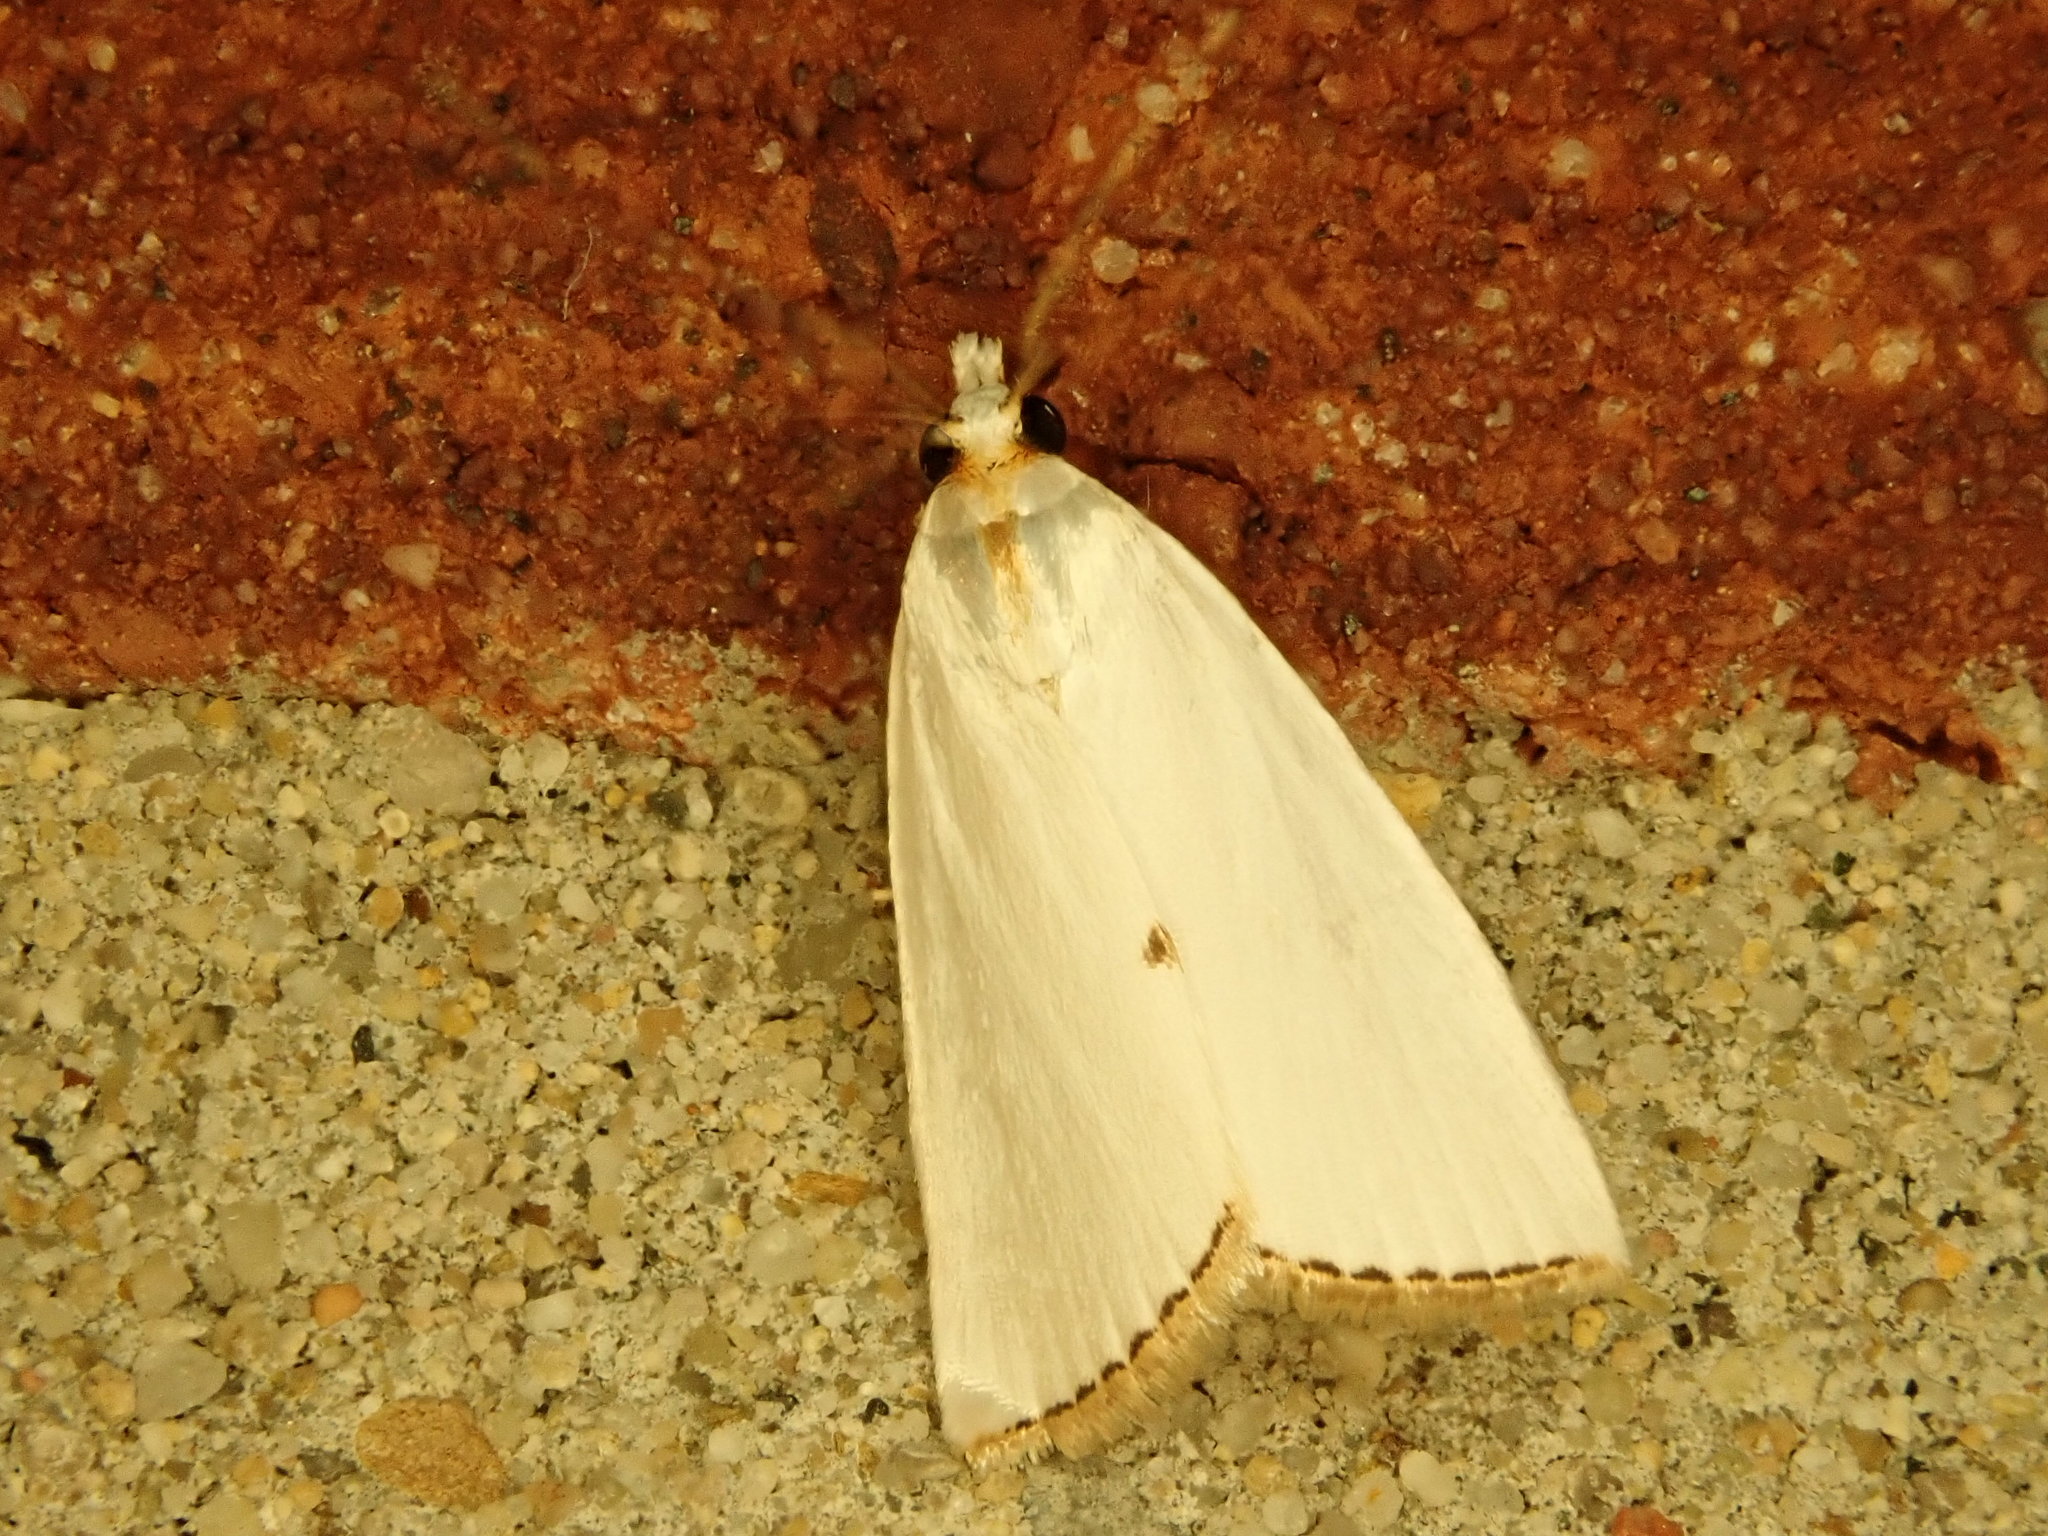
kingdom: Animalia
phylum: Arthropoda
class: Insecta
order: Lepidoptera
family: Crambidae
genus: Argyria
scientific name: Argyria nivalis
